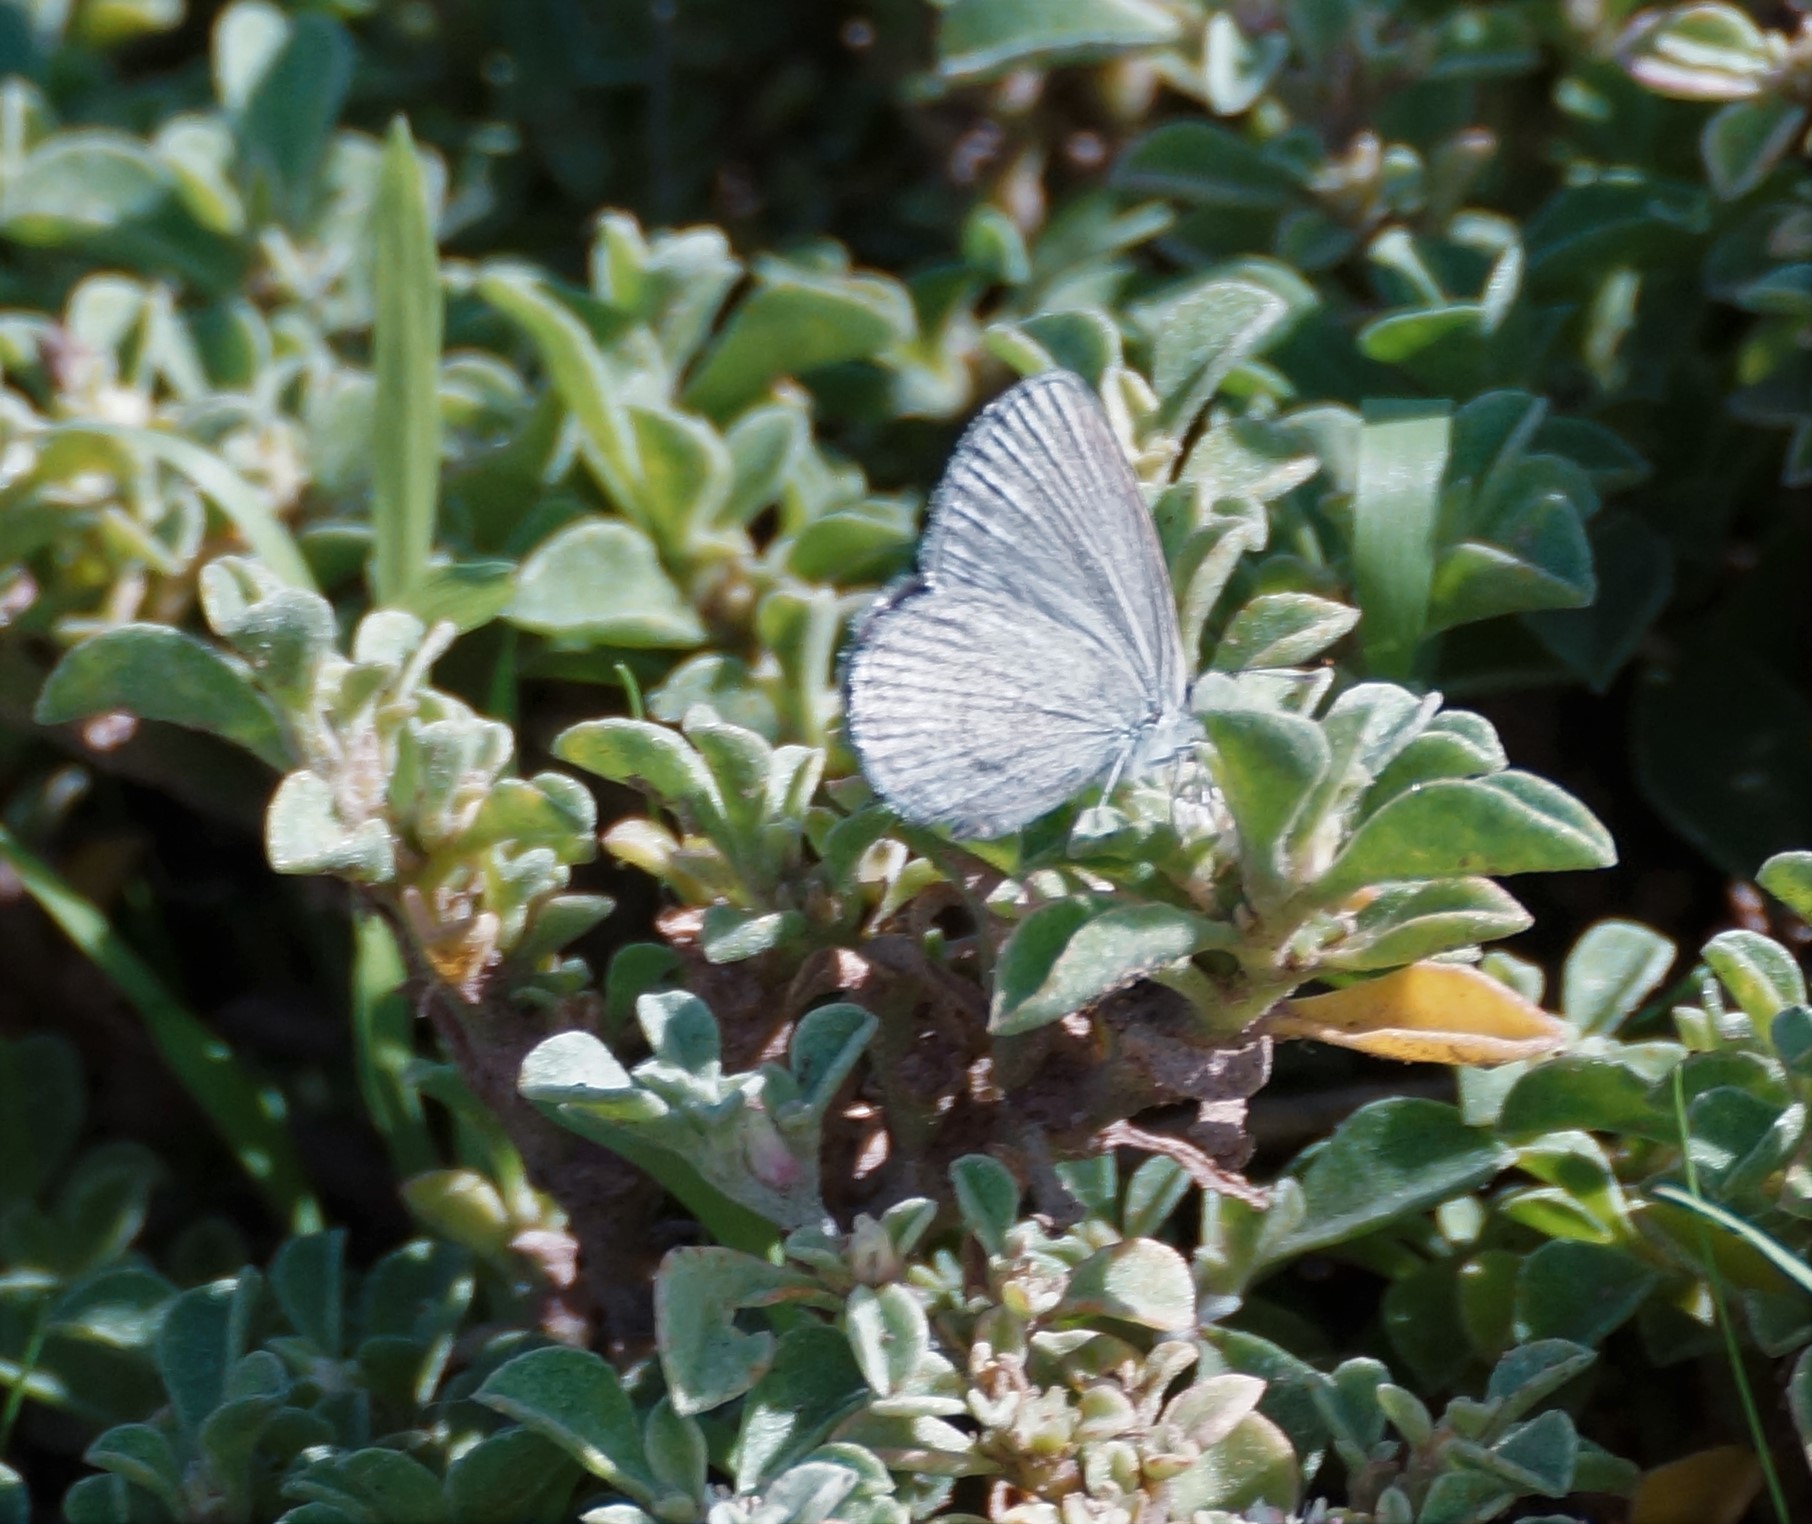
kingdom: Animalia
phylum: Arthropoda
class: Insecta
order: Lepidoptera
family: Lycaenidae
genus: Zizina
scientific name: Zizina labradus
